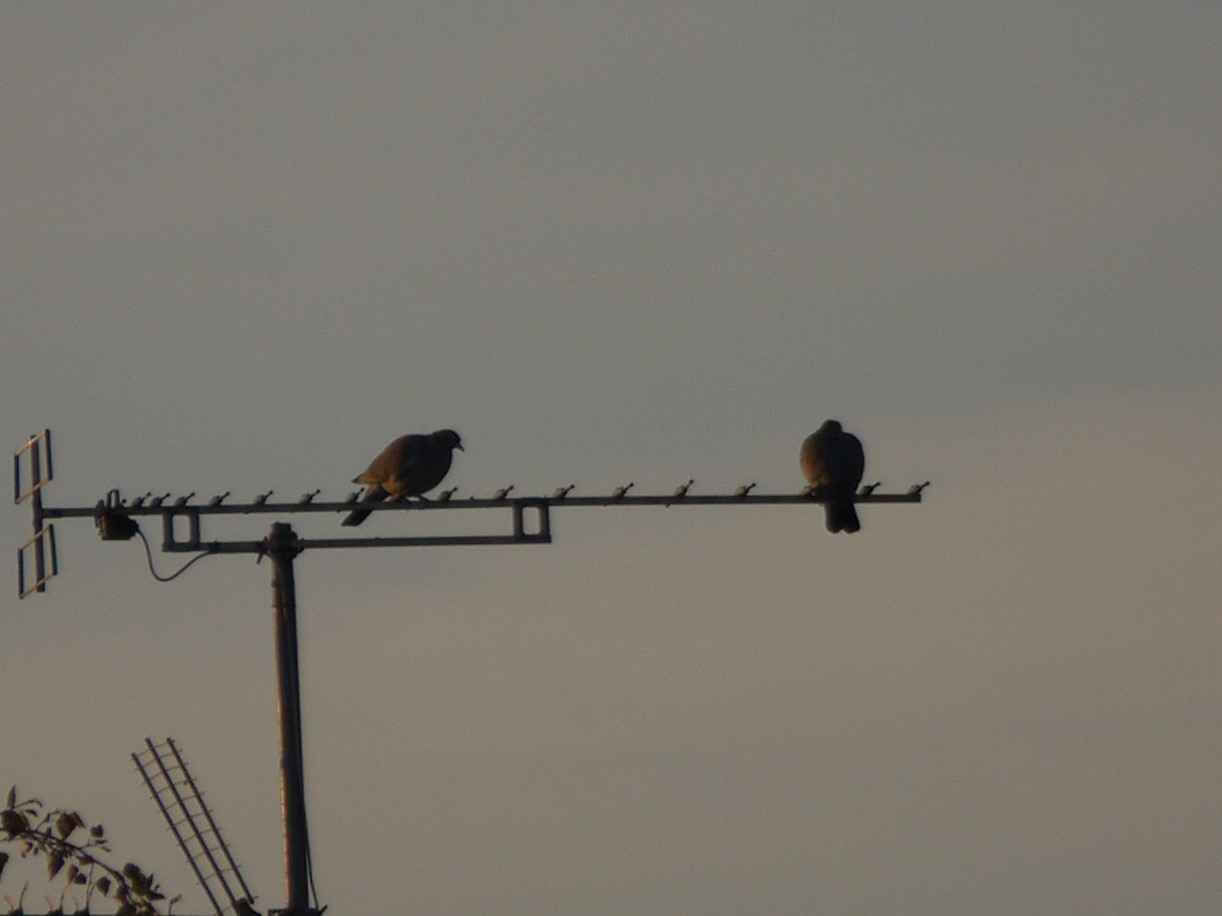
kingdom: Animalia
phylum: Chordata
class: Aves
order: Columbiformes
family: Columbidae
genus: Columba
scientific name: Columba palumbus
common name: Common wood pigeon
